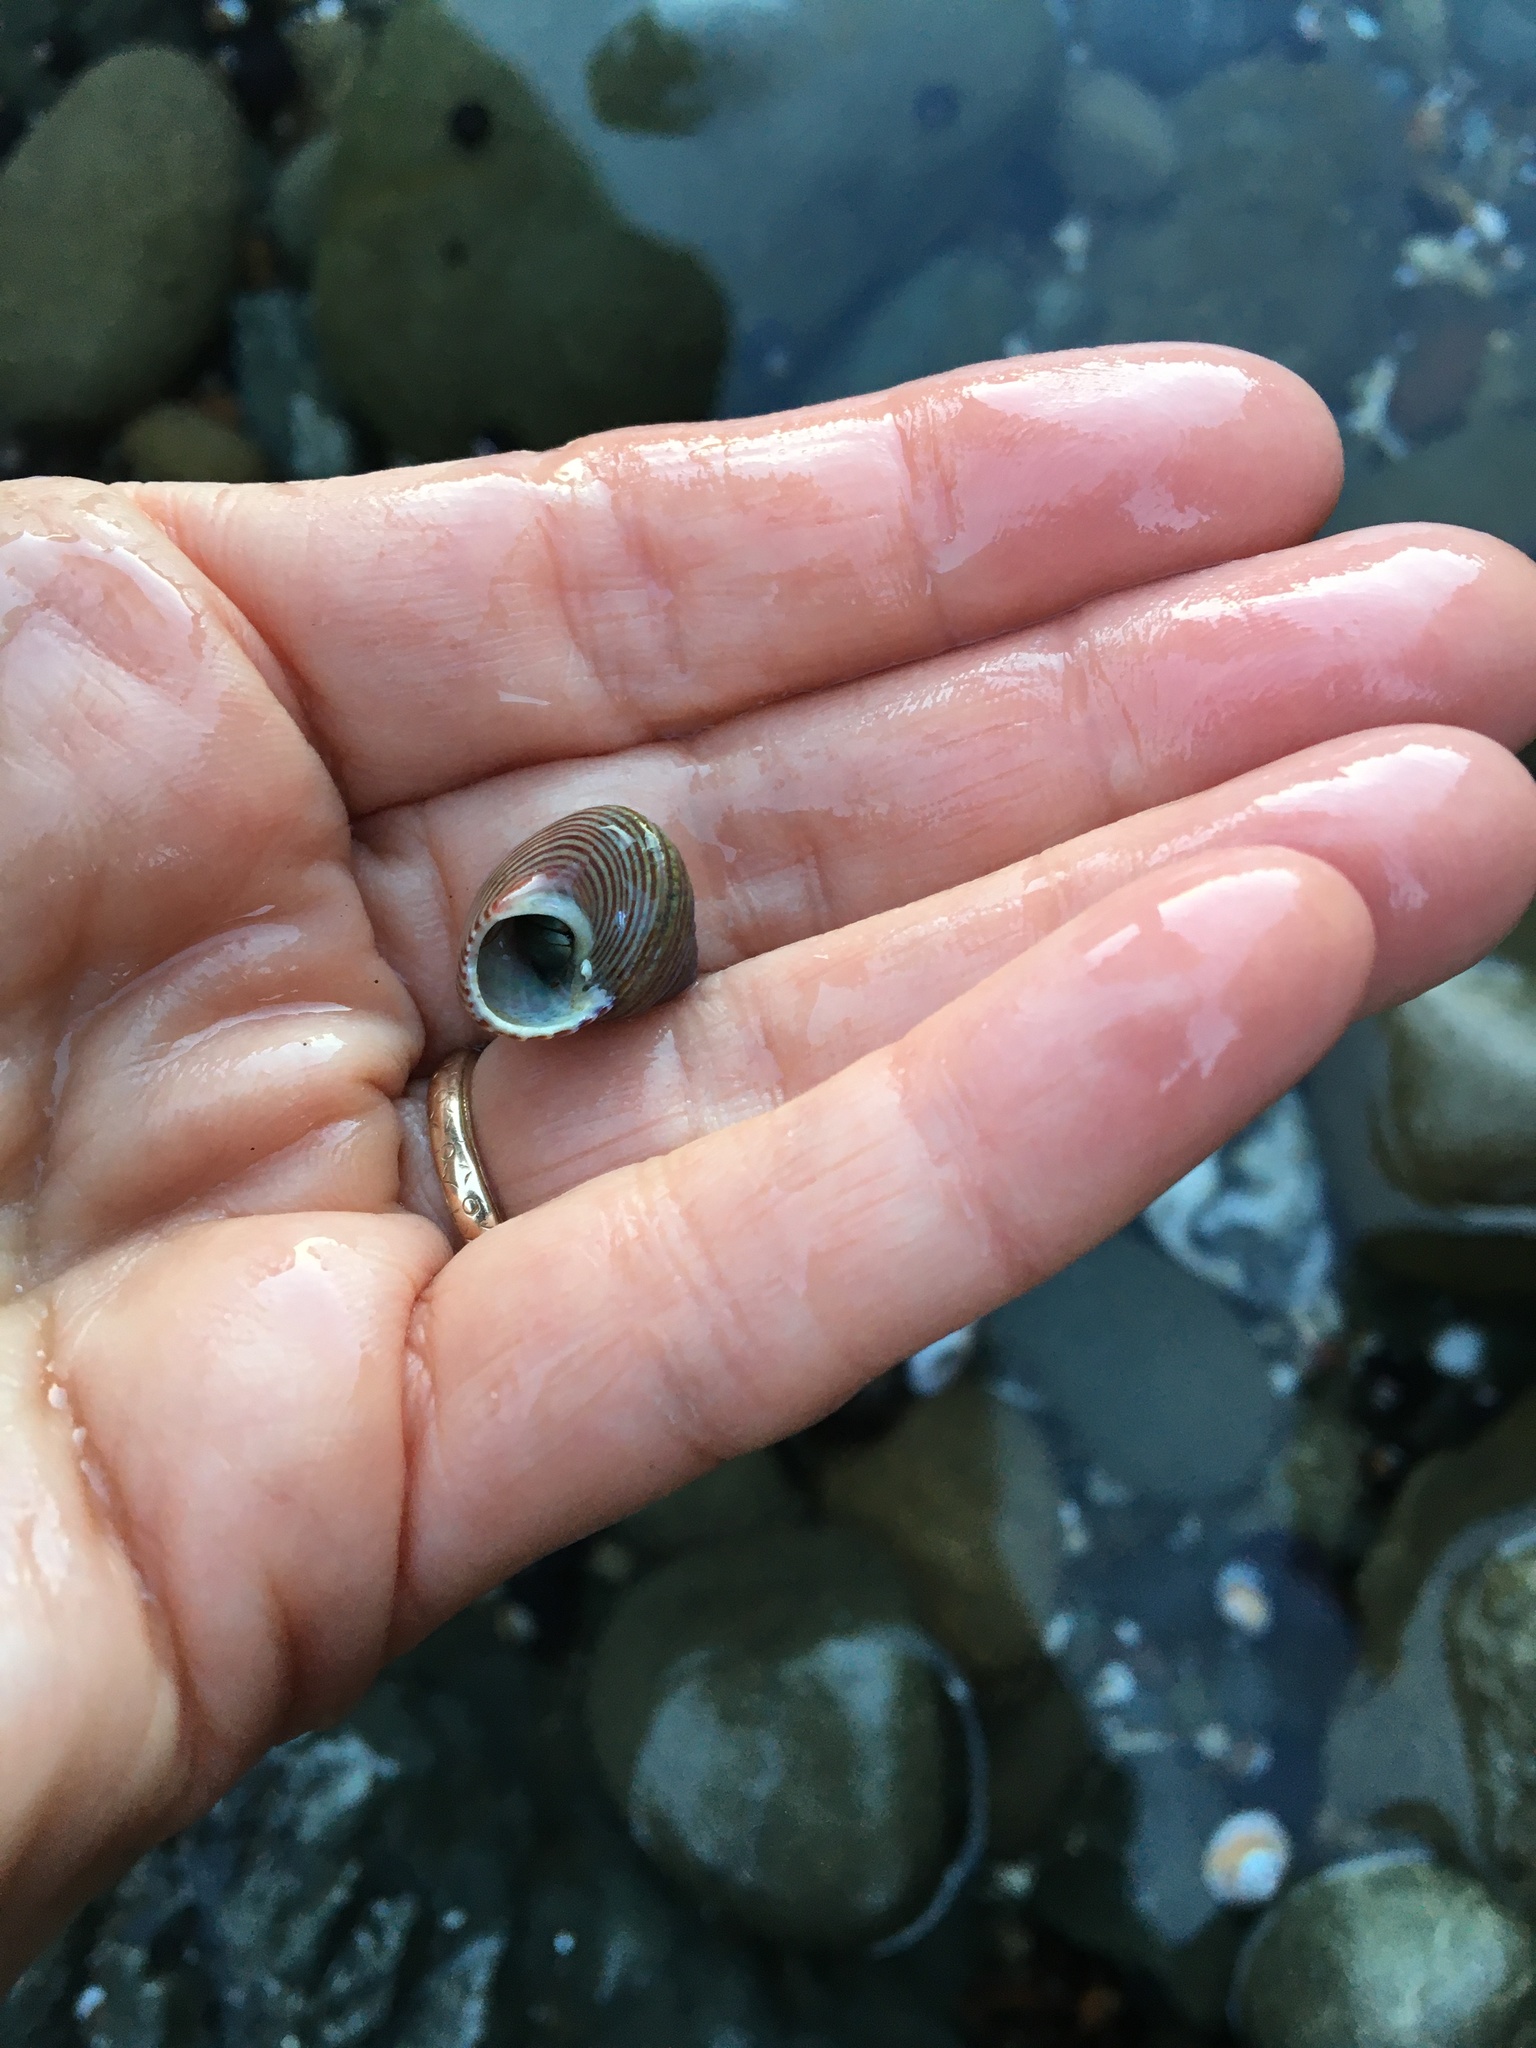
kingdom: Animalia
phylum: Mollusca
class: Gastropoda
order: Trochida
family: Calliostomatidae
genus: Calliostoma
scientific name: Calliostoma ligatum
